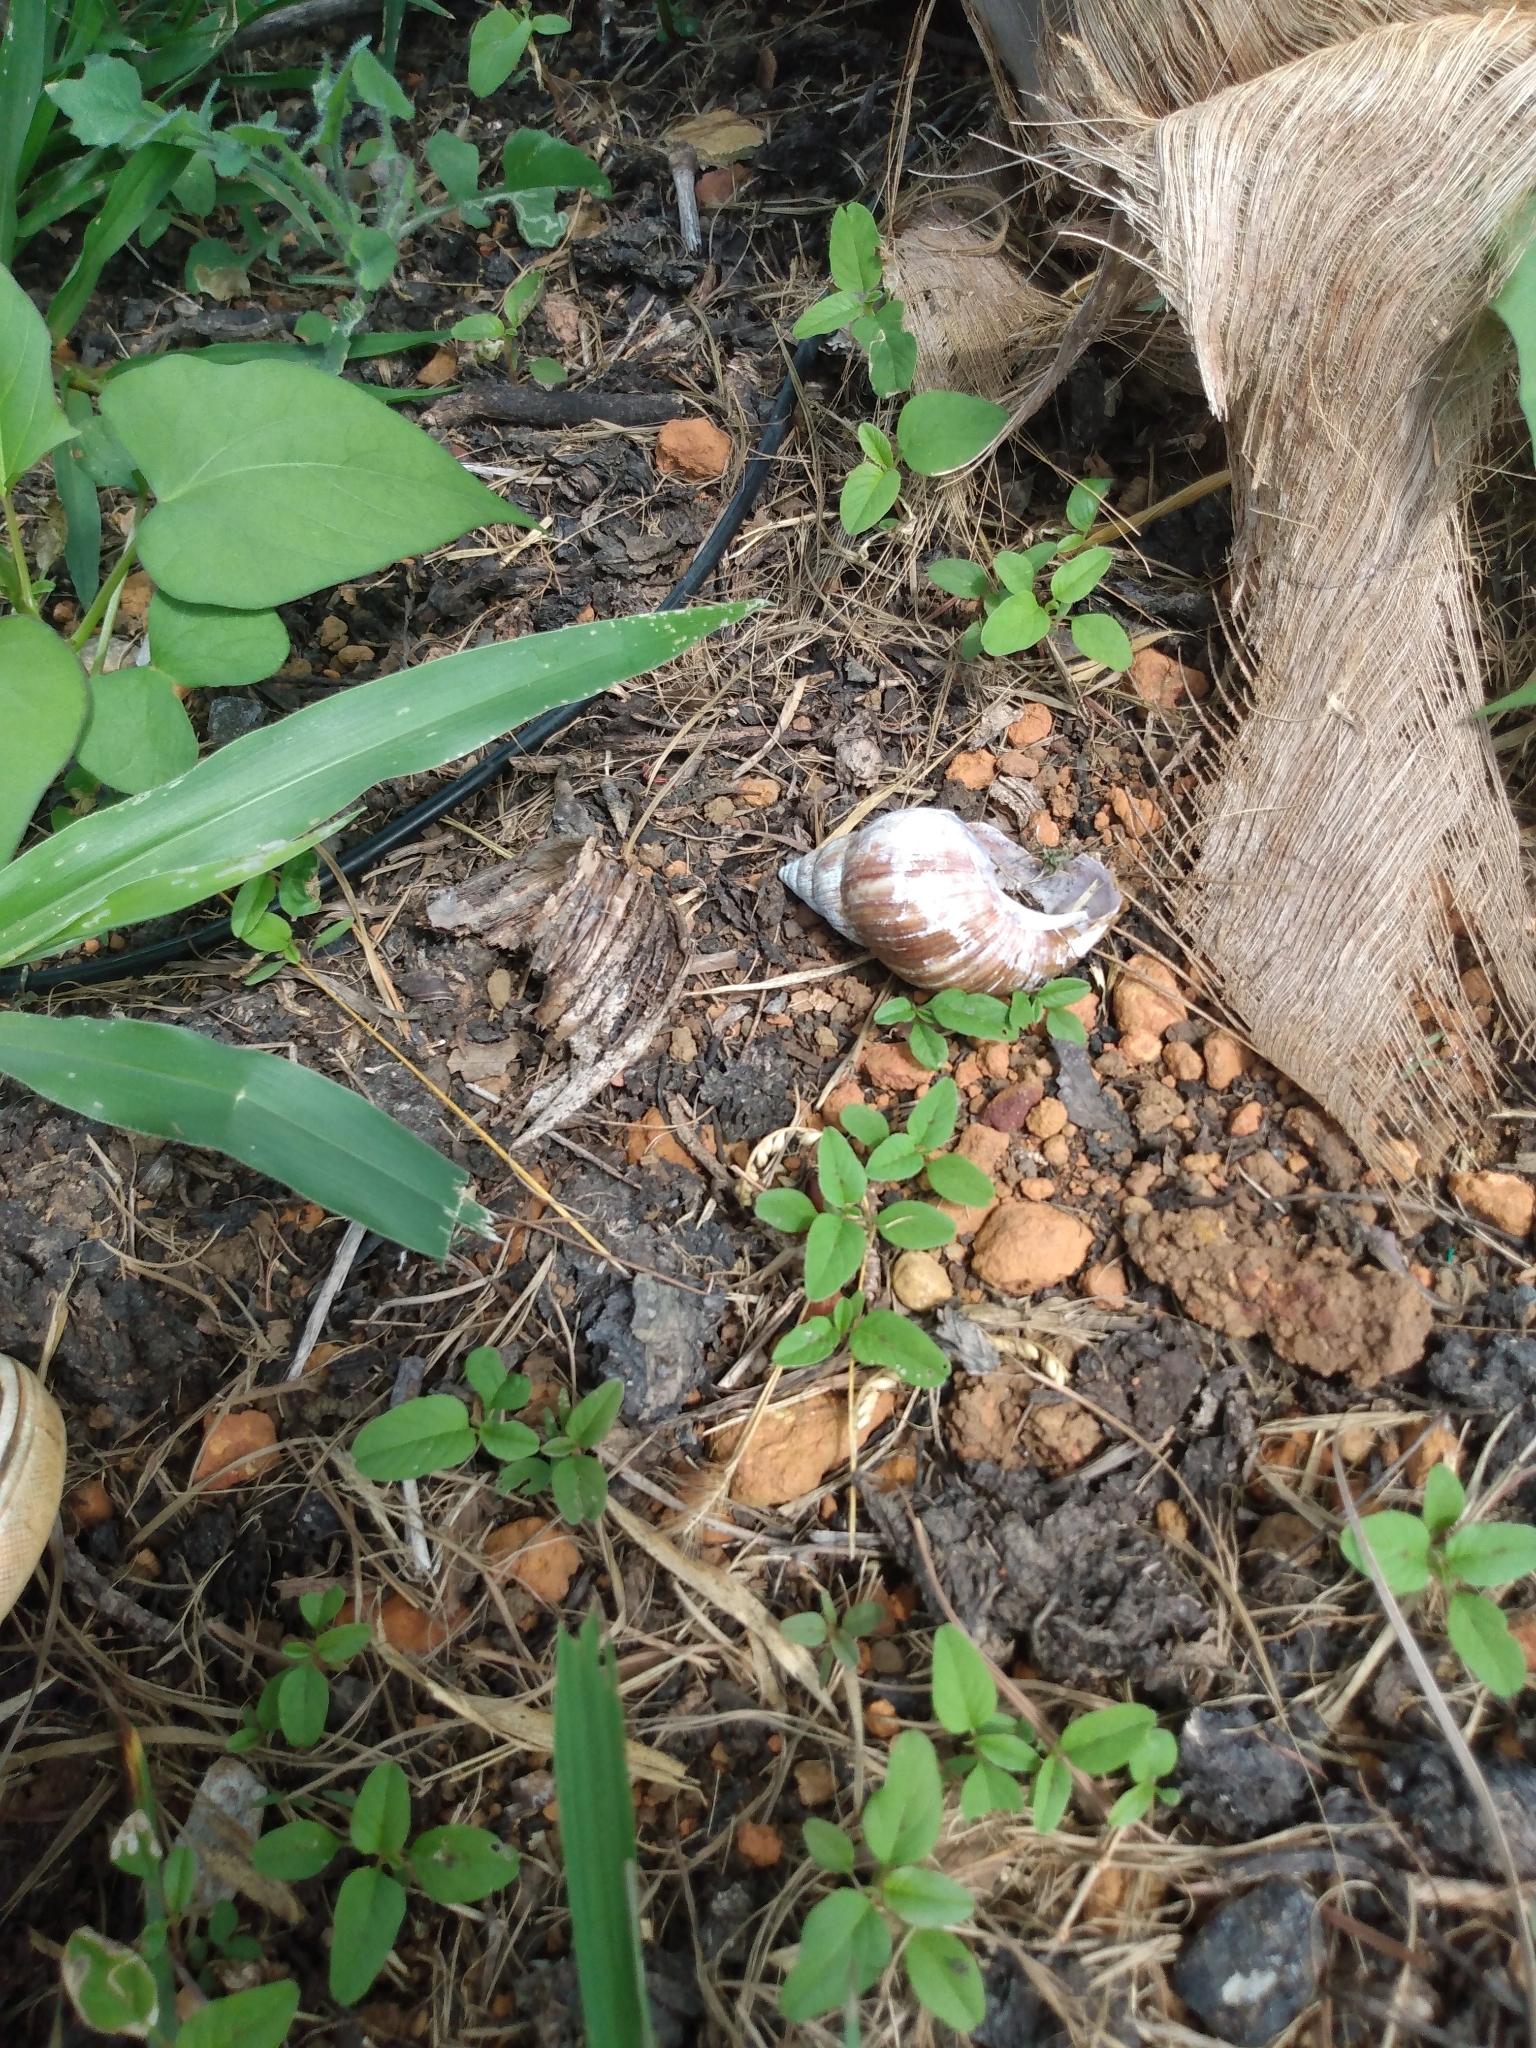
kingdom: Animalia
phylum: Mollusca
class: Gastropoda
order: Stylommatophora
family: Achatinidae
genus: Lissachatina
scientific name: Lissachatina fulica
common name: Giant african snail
